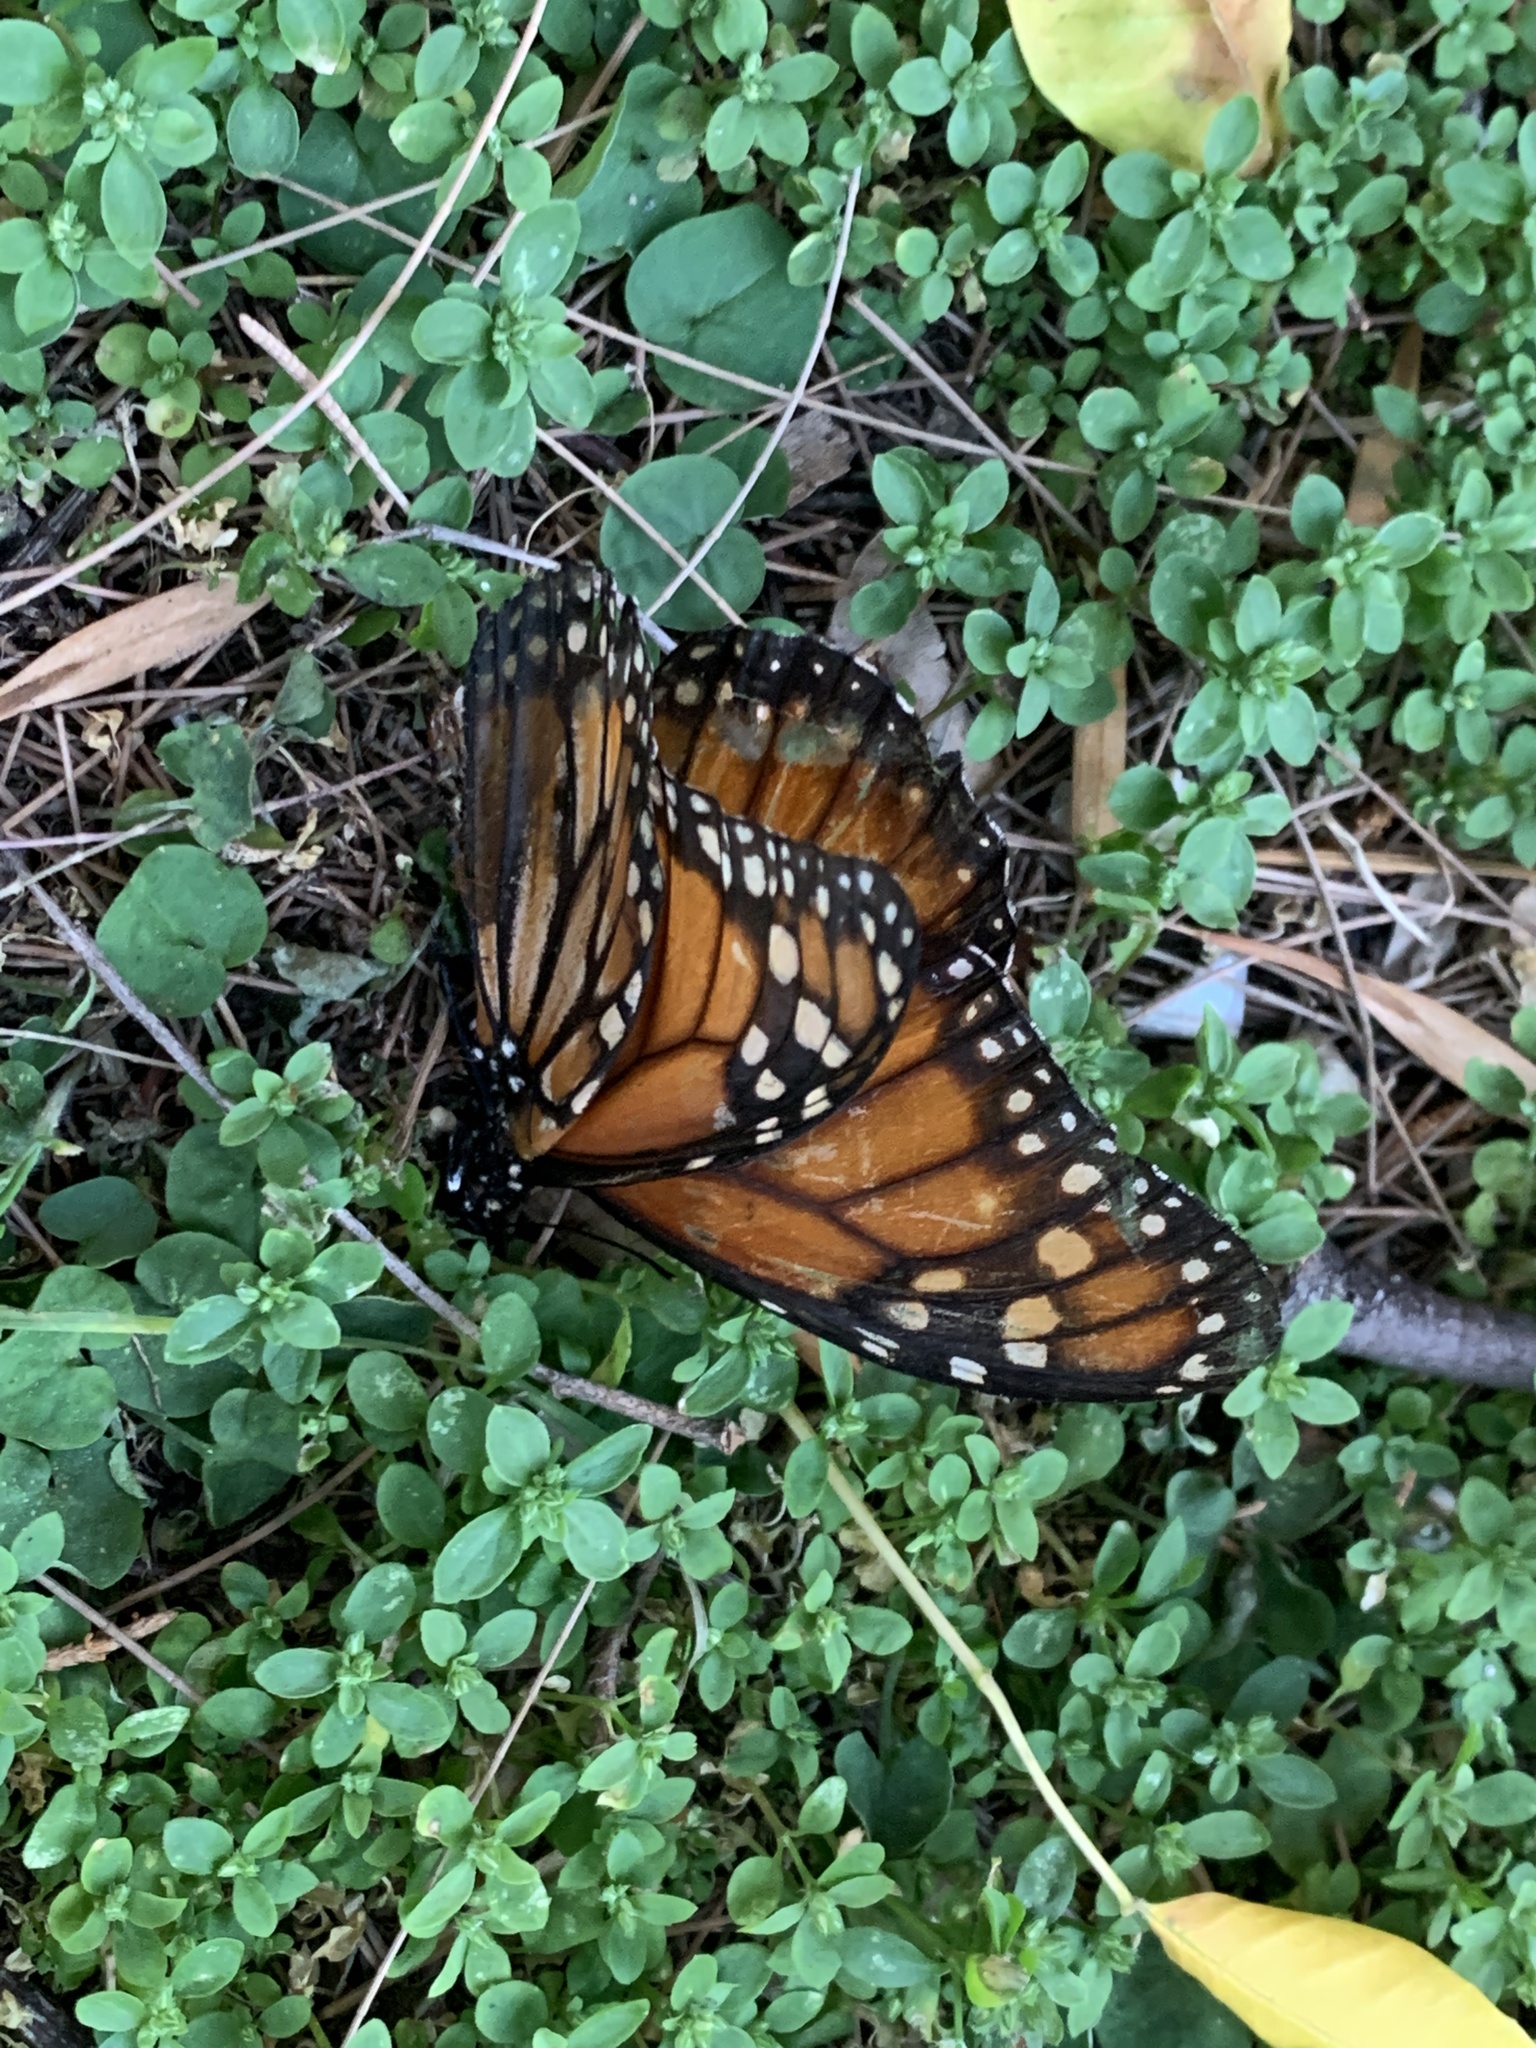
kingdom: Animalia
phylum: Arthropoda
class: Insecta
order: Lepidoptera
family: Nymphalidae
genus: Danaus
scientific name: Danaus erippus
